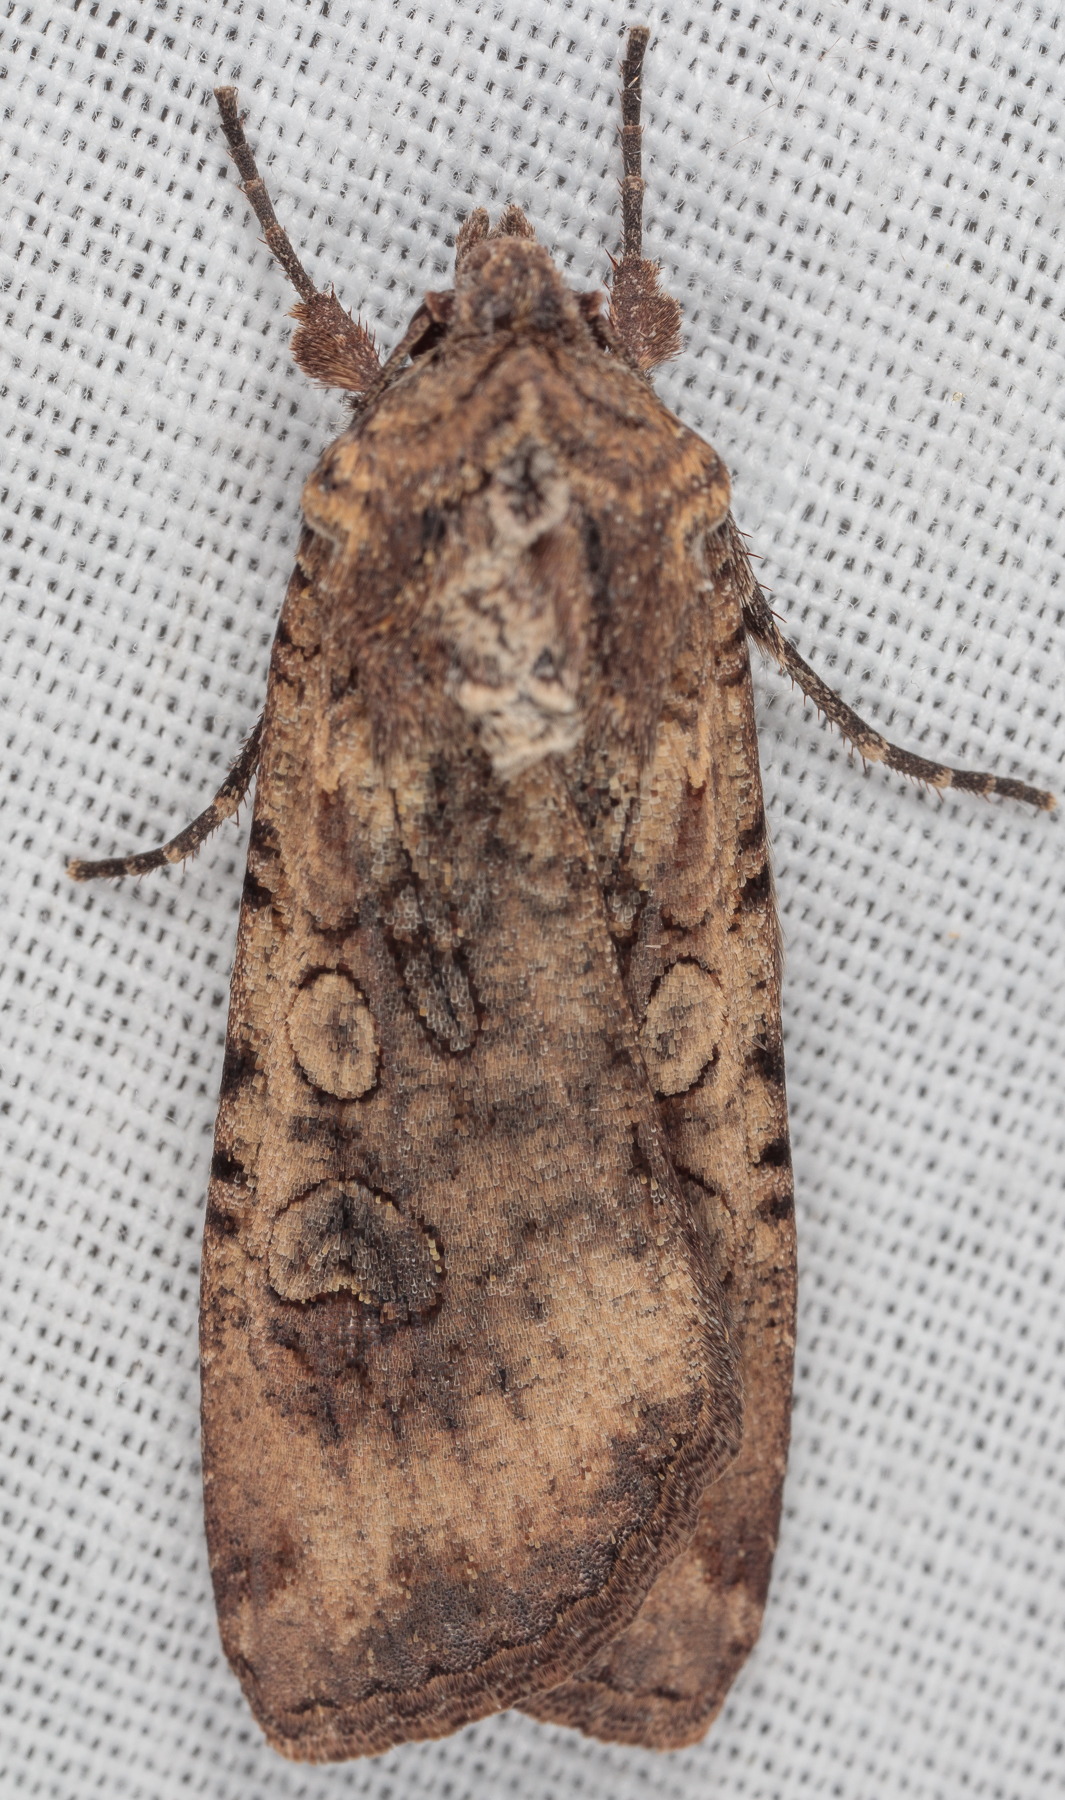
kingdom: Animalia
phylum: Arthropoda
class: Insecta
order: Lepidoptera
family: Noctuidae
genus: Peridroma
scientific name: Peridroma saucia
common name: Pearly underwing
